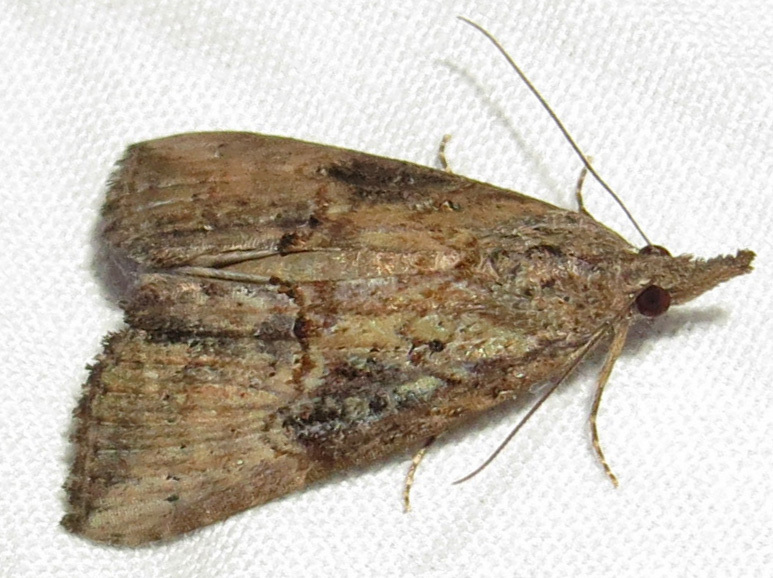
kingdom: Animalia
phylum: Arthropoda
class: Insecta
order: Lepidoptera
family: Erebidae
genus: Hypena
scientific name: Hypena scabra
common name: Green cloverworm
